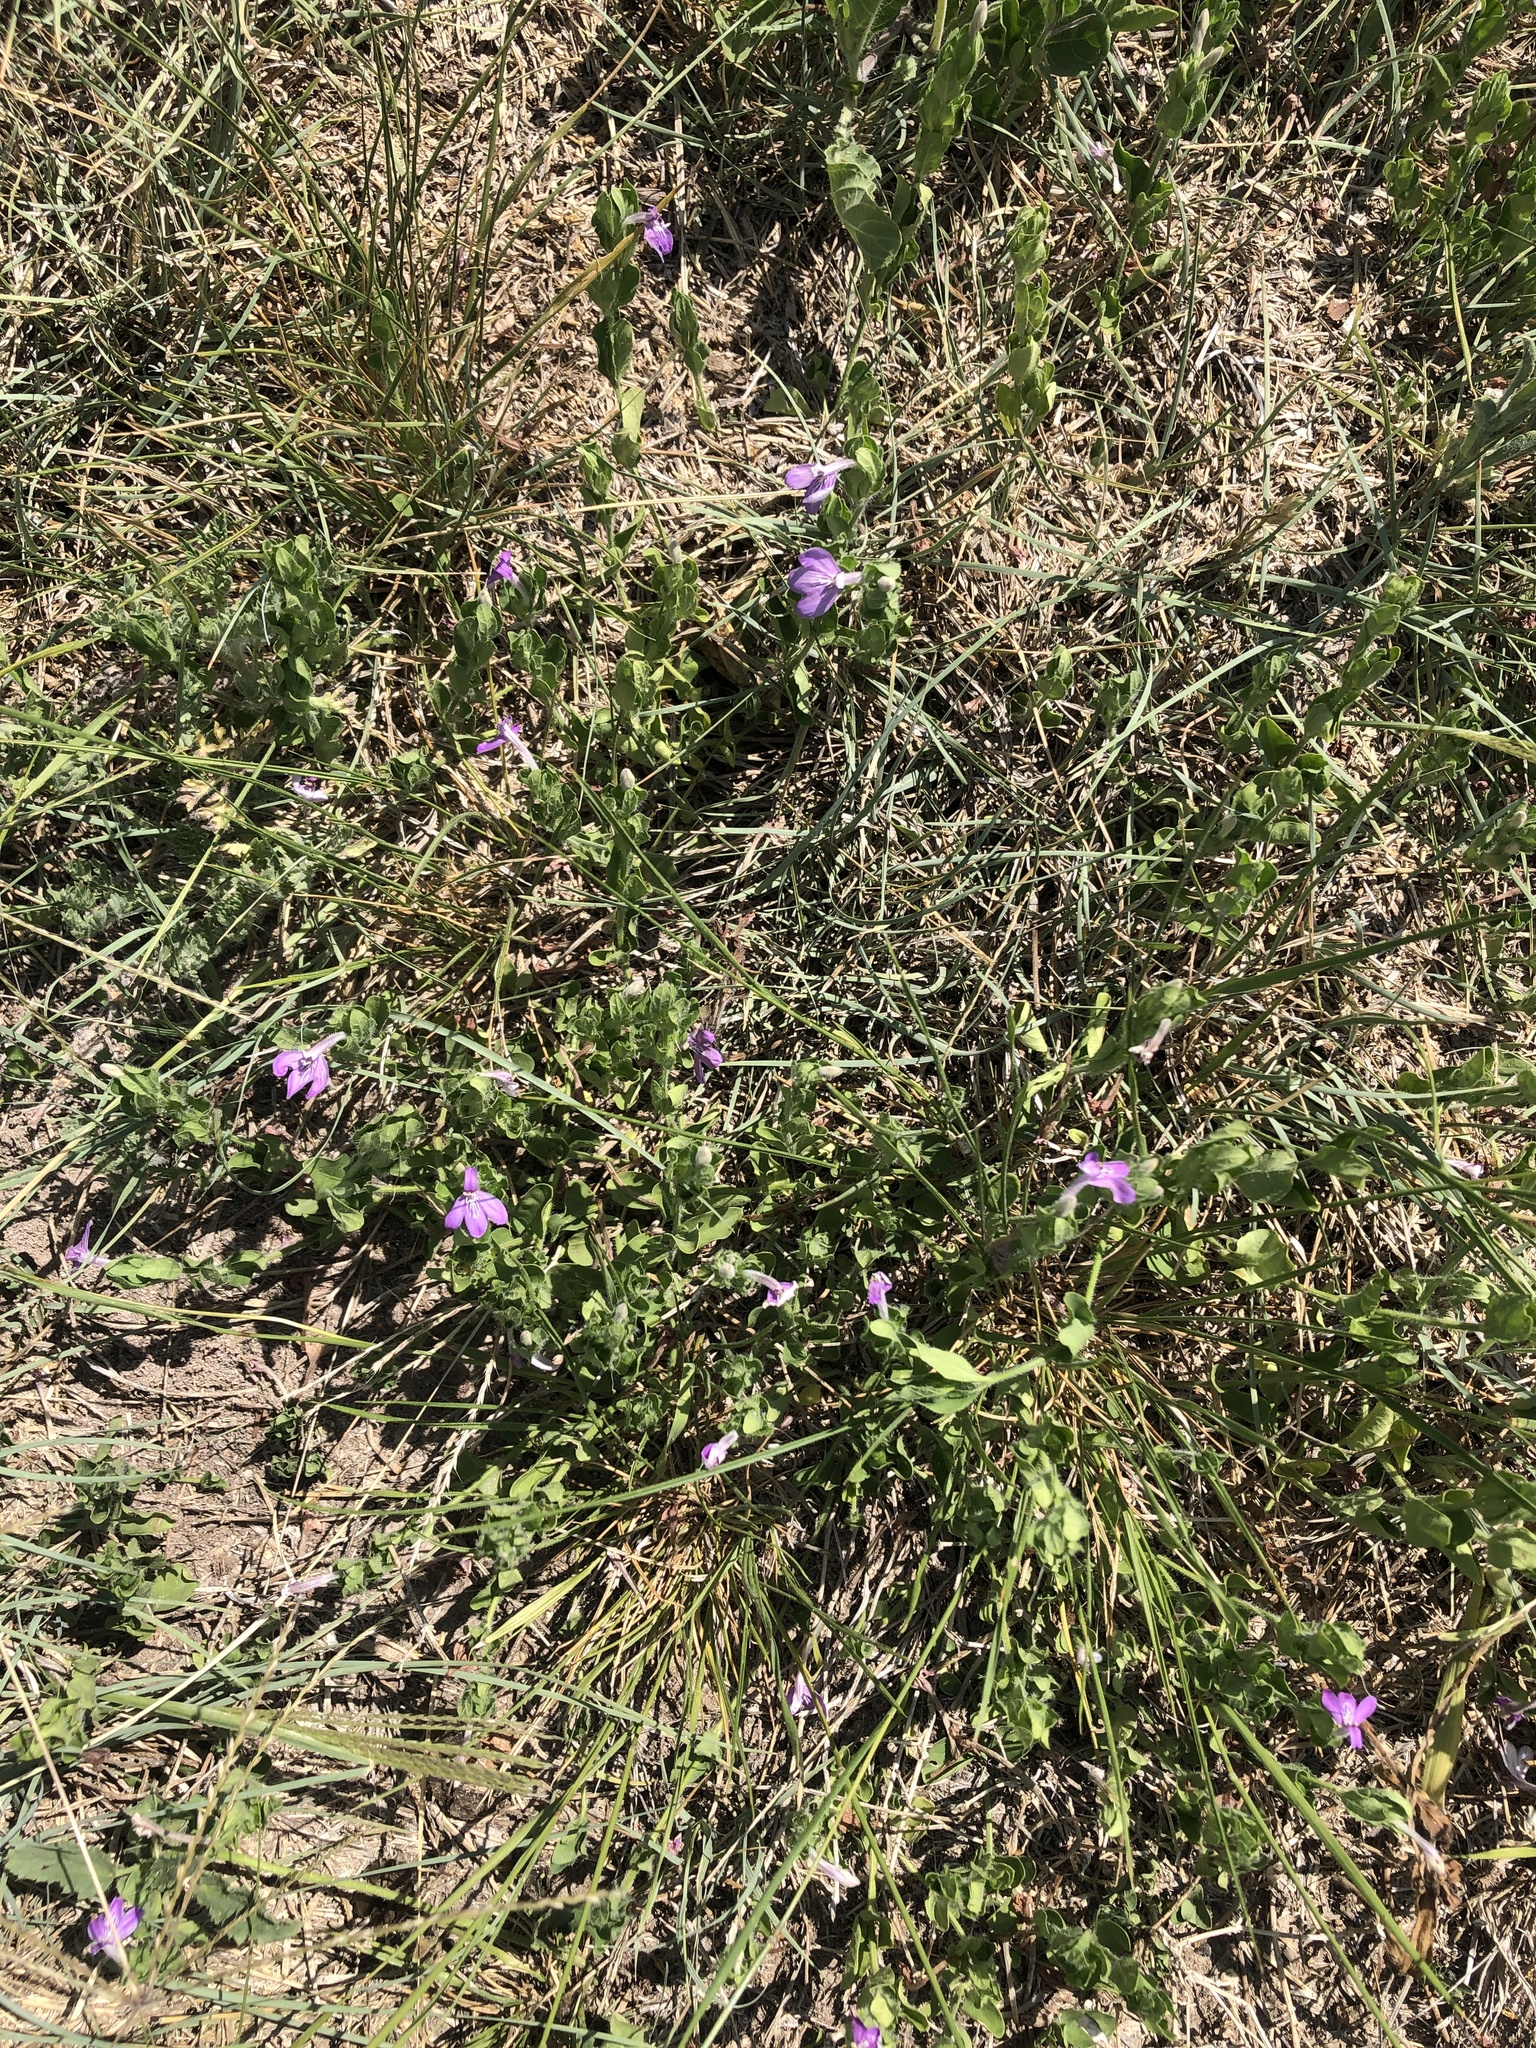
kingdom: Plantae
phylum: Tracheophyta
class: Magnoliopsida
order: Lamiales
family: Acanthaceae
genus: Justicia
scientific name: Justicia pilosella
